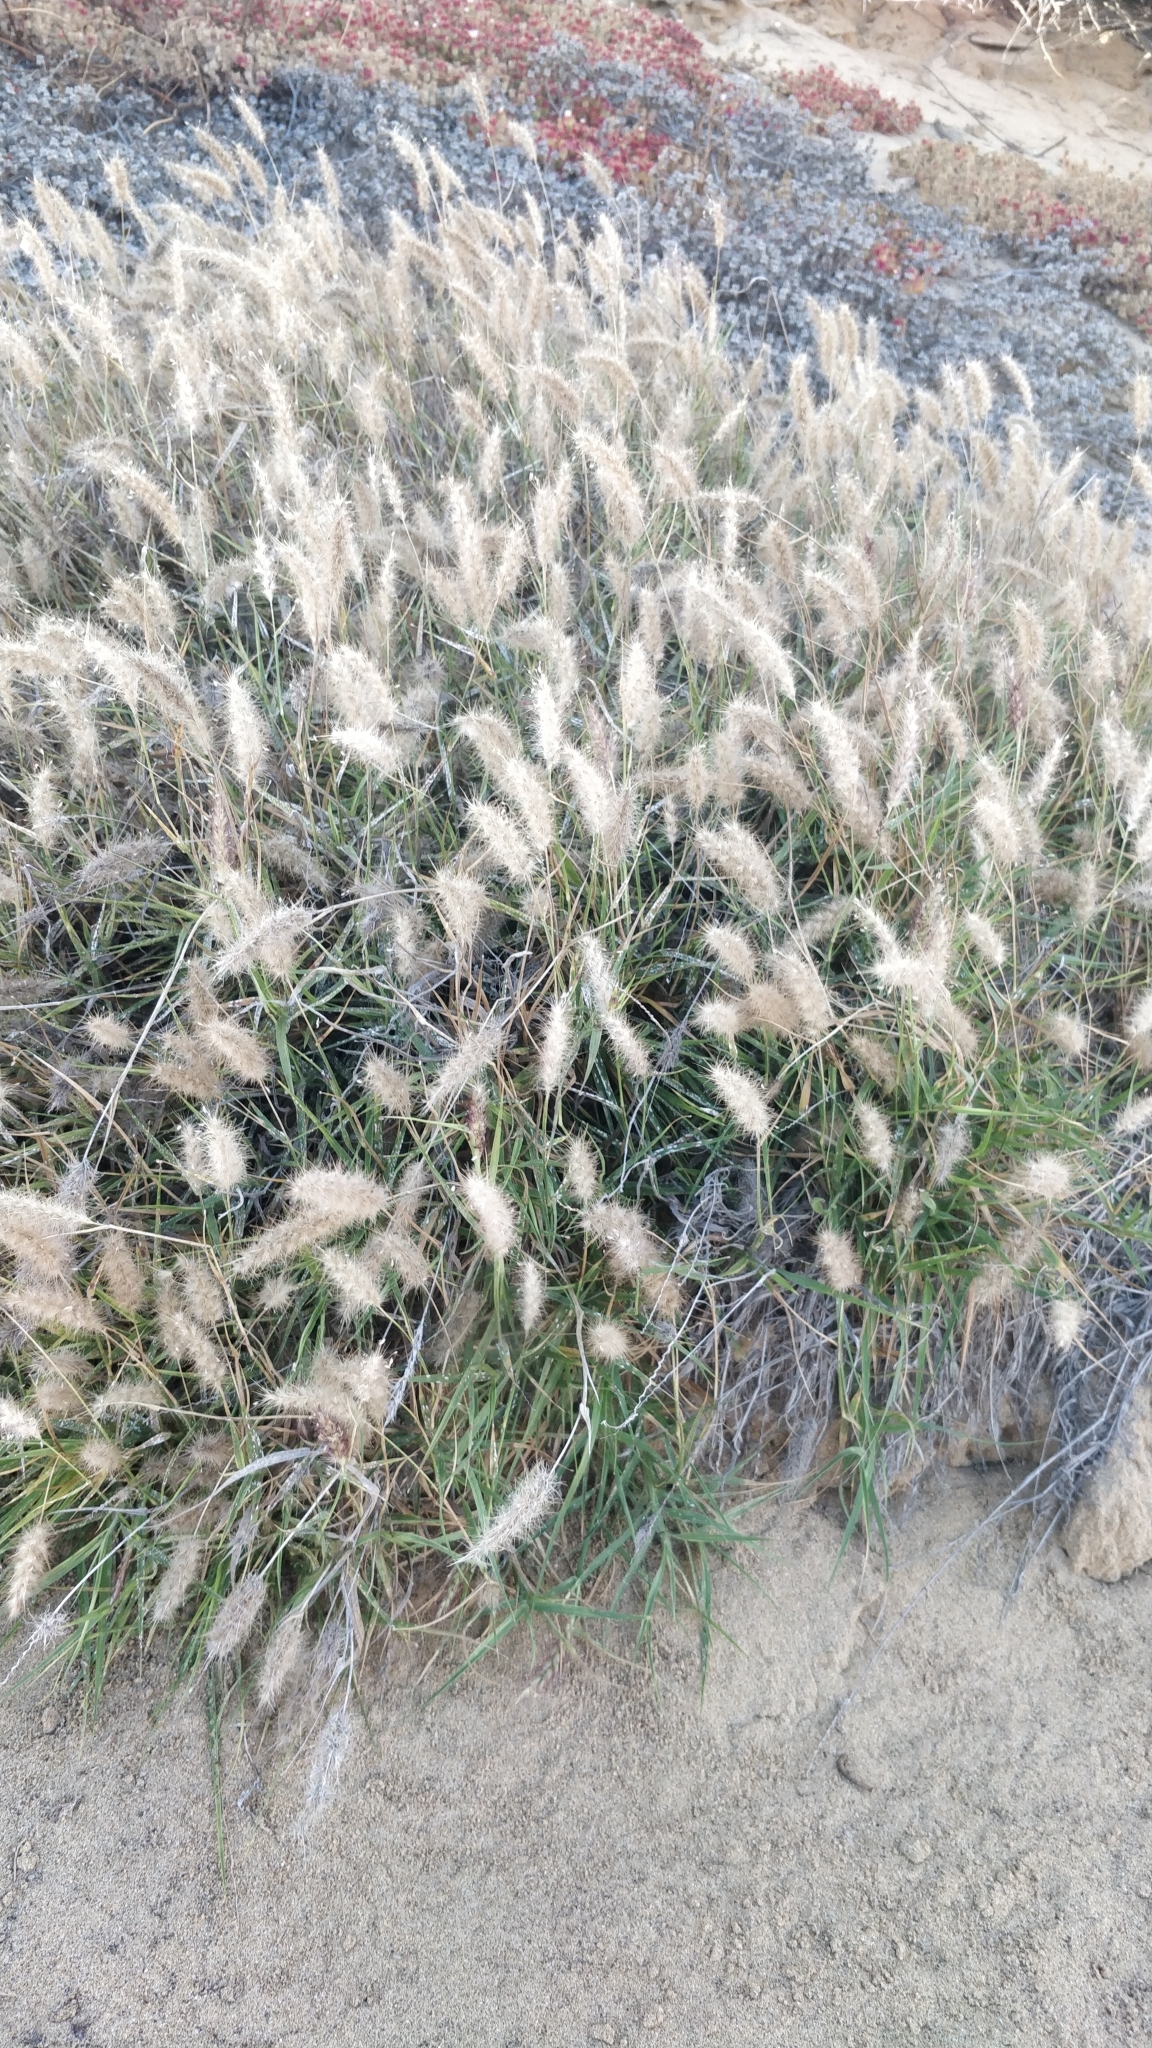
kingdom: Plantae
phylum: Tracheophyta
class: Liliopsida
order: Poales
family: Poaceae
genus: Cenchrus
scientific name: Cenchrus longisetus
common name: Feathertop
